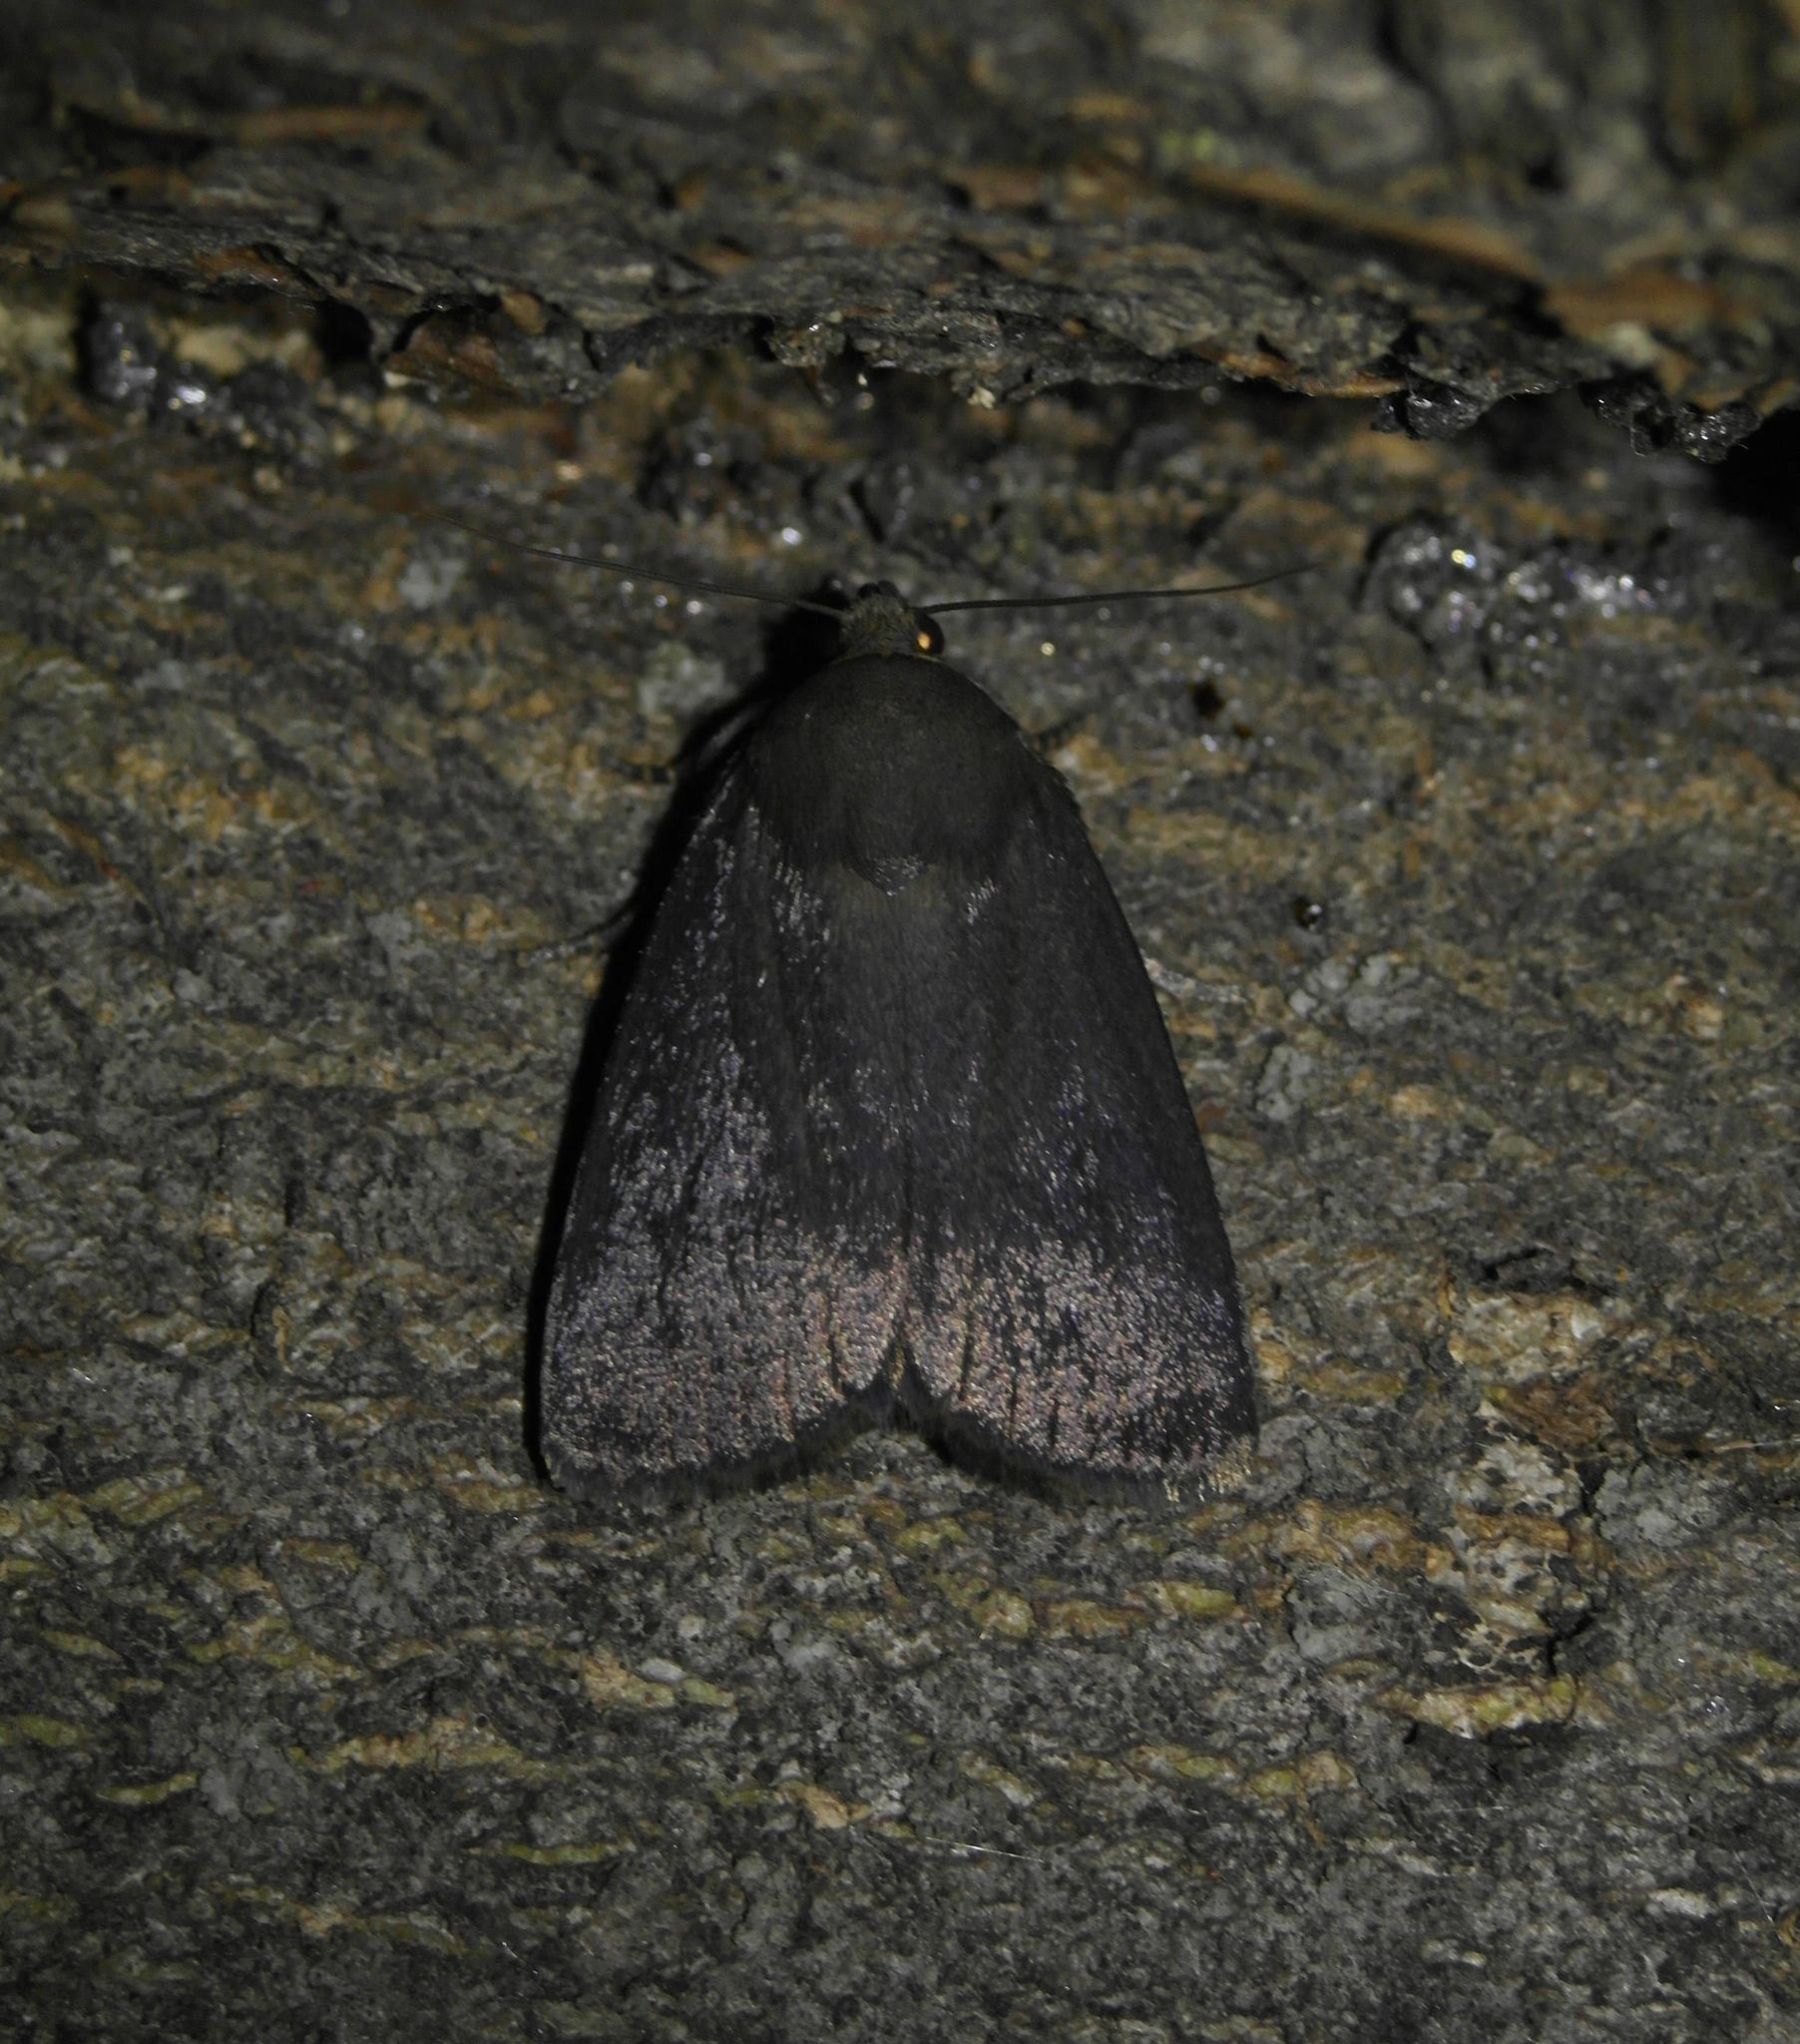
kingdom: Animalia
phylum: Arthropoda
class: Insecta
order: Lepidoptera
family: Noctuidae
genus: Amphipyra
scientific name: Amphipyra livida
